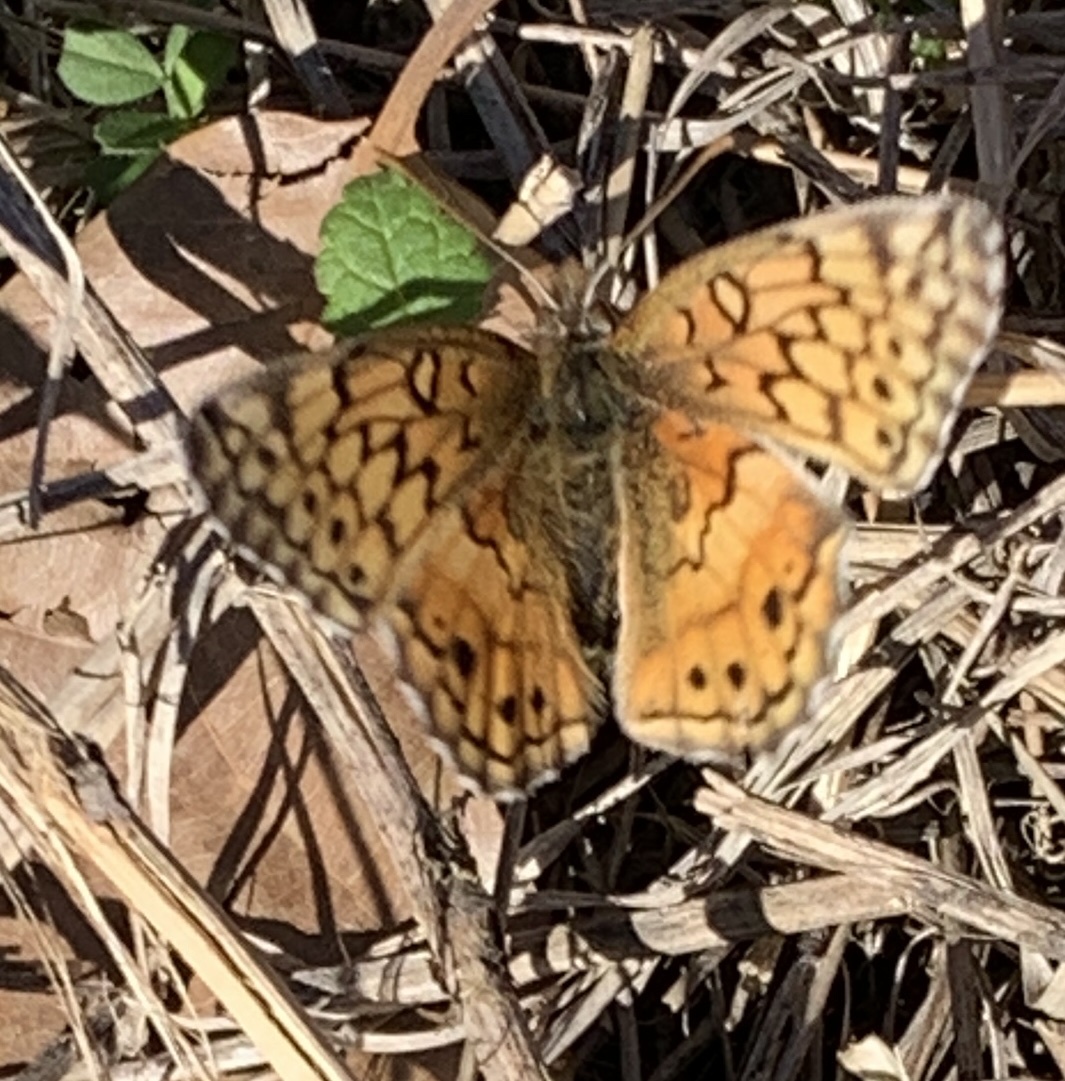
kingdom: Animalia
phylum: Arthropoda
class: Insecta
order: Lepidoptera
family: Nymphalidae
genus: Euptoieta
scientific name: Euptoieta claudia
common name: Variegated fritillary
